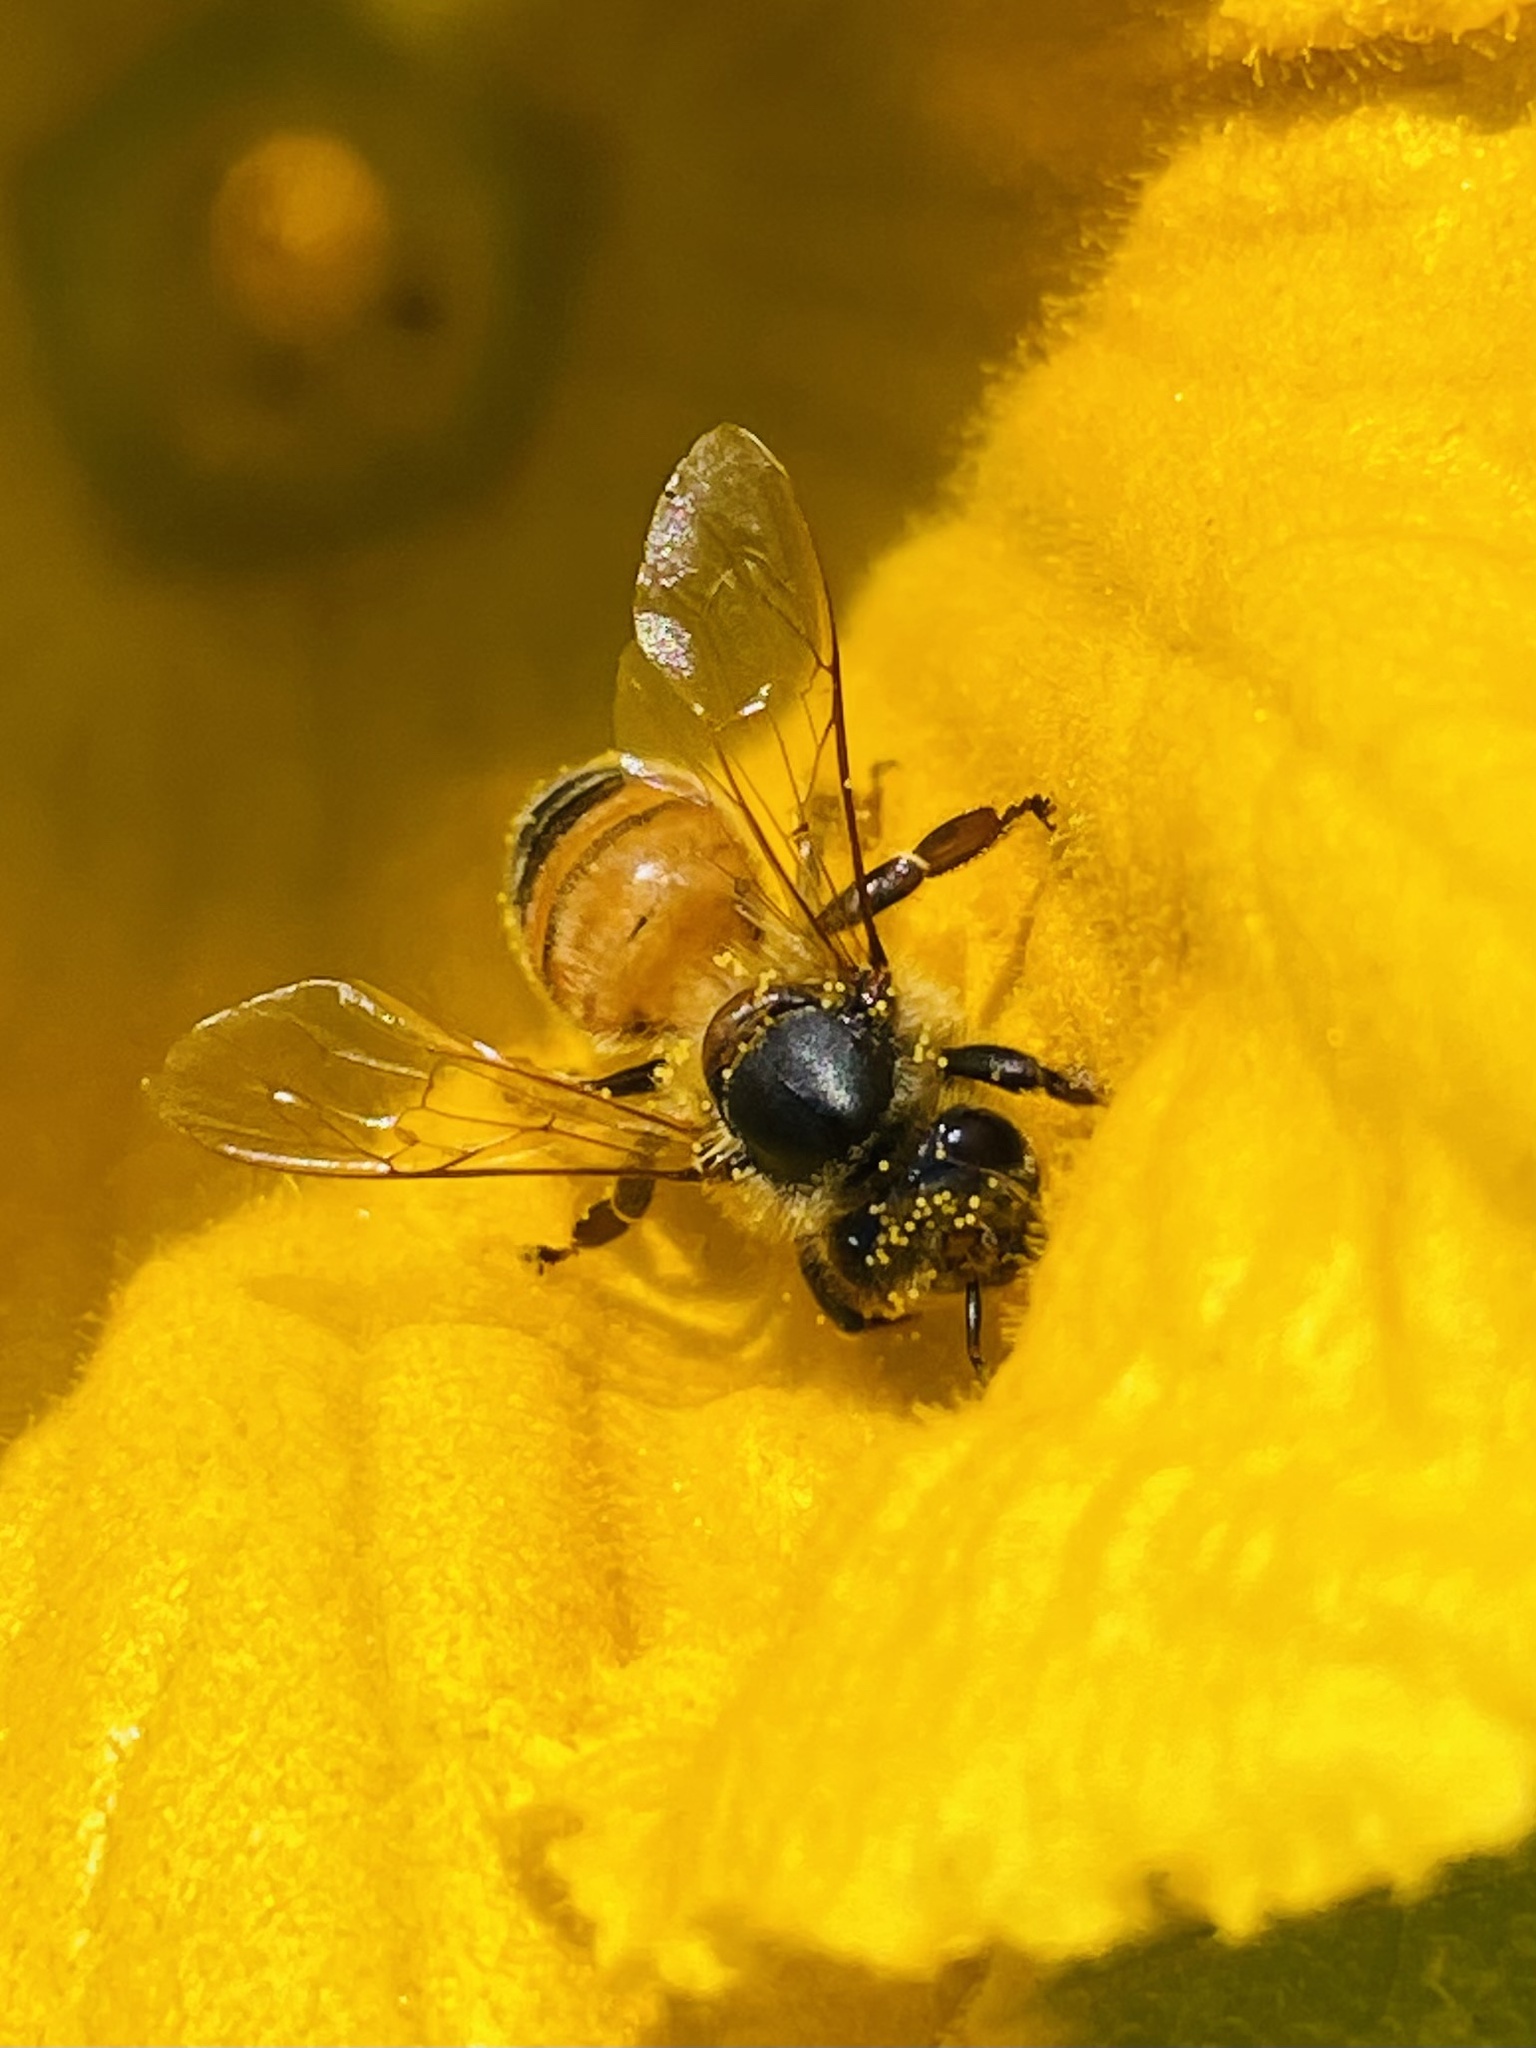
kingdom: Animalia
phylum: Arthropoda
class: Insecta
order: Hymenoptera
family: Apidae
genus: Apis
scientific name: Apis mellifera
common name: Honey bee
